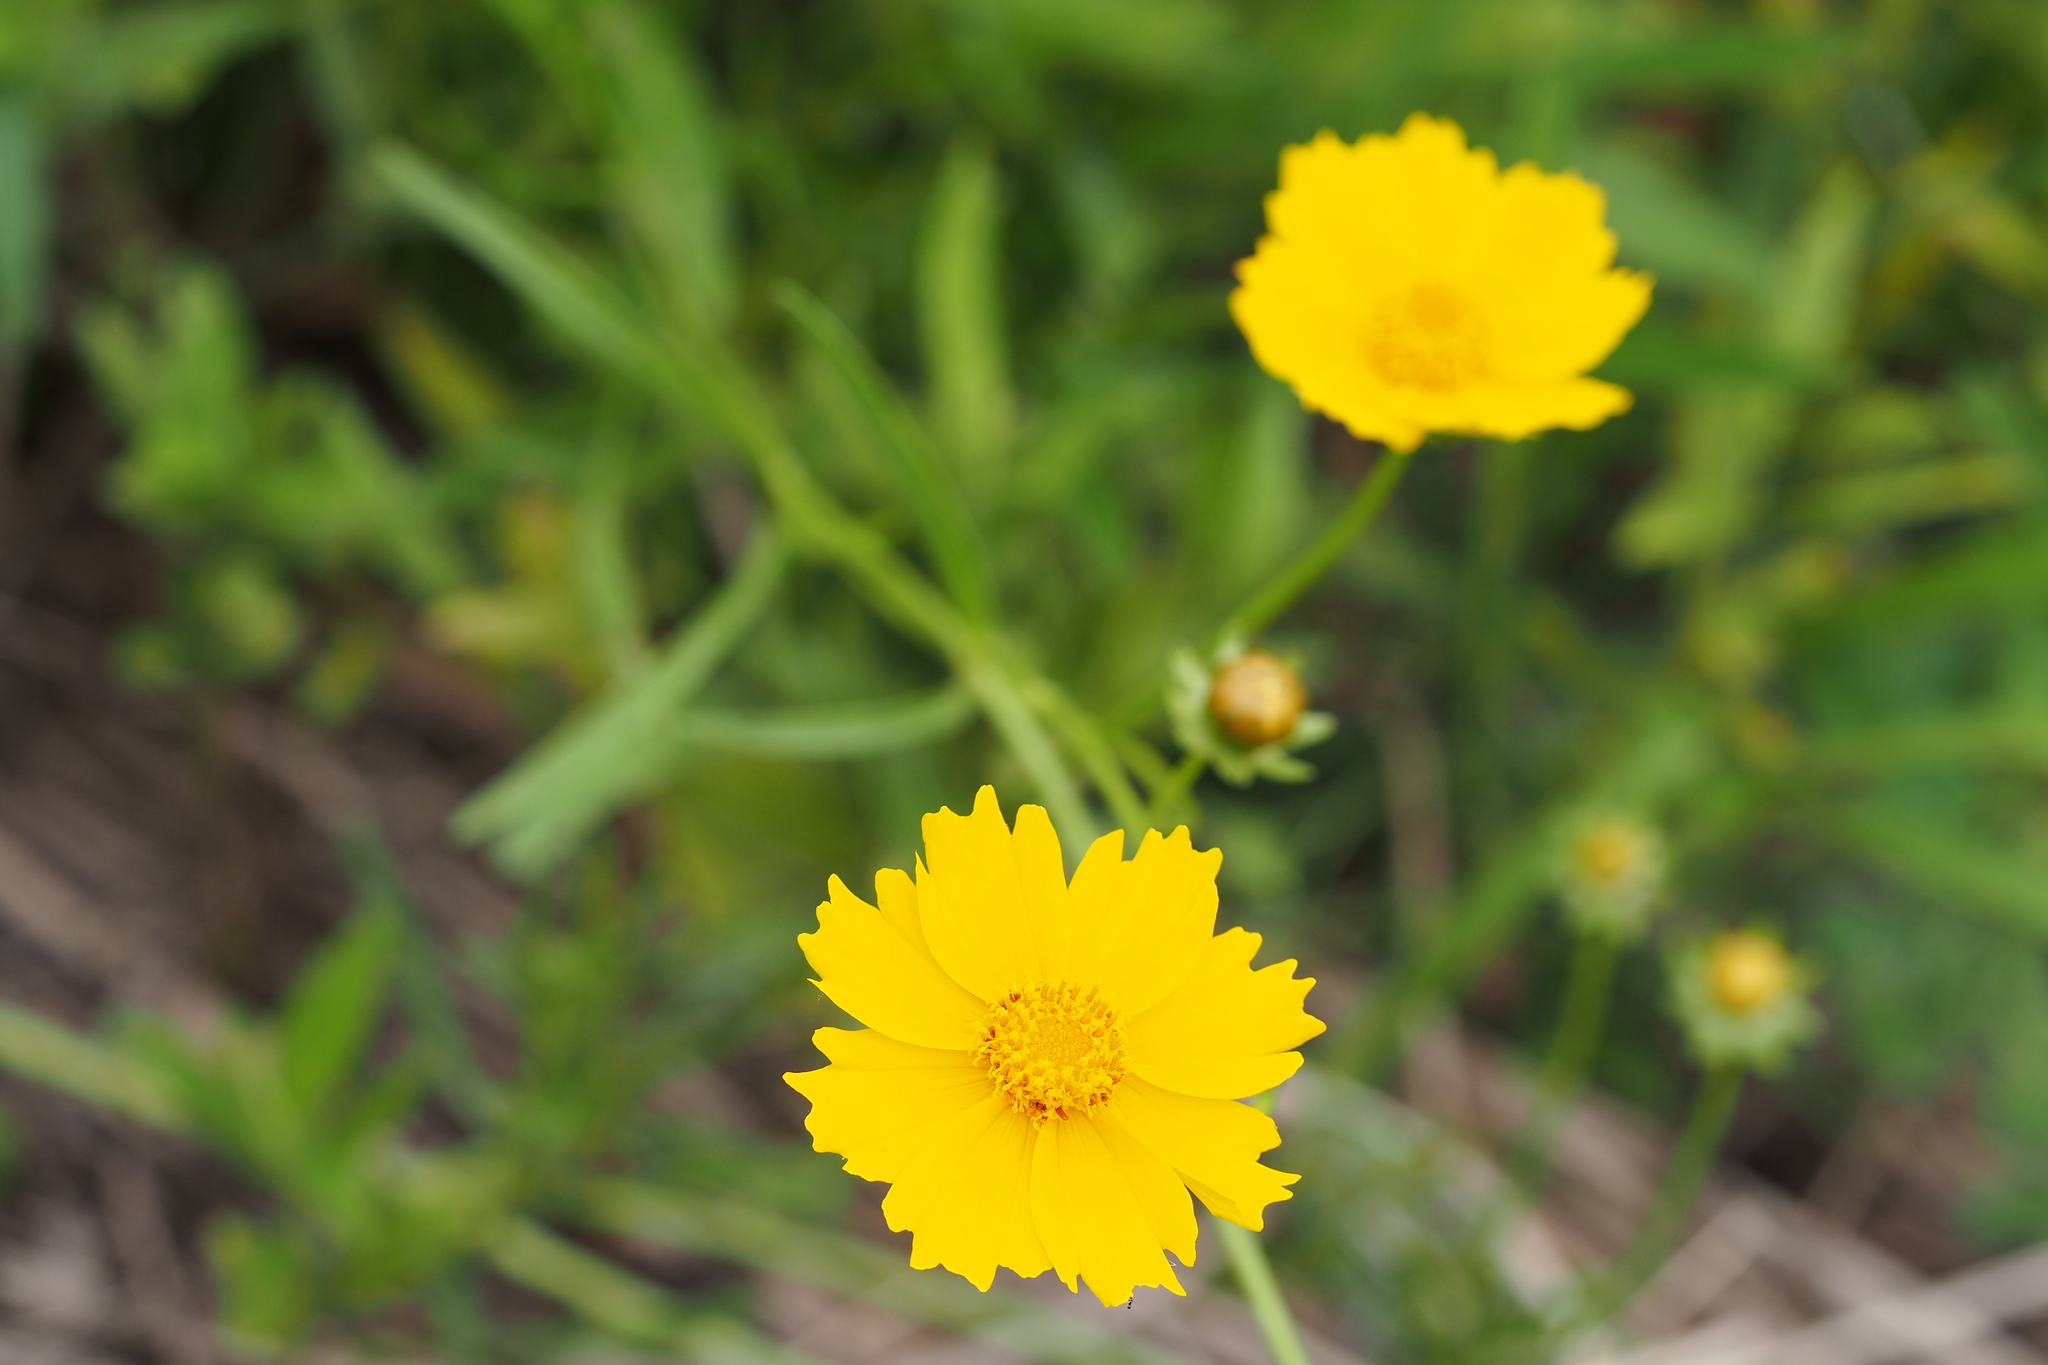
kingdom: Plantae
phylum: Tracheophyta
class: Magnoliopsida
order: Asterales
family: Asteraceae
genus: Coreopsis
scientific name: Coreopsis lanceolata
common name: Garden coreopsis
